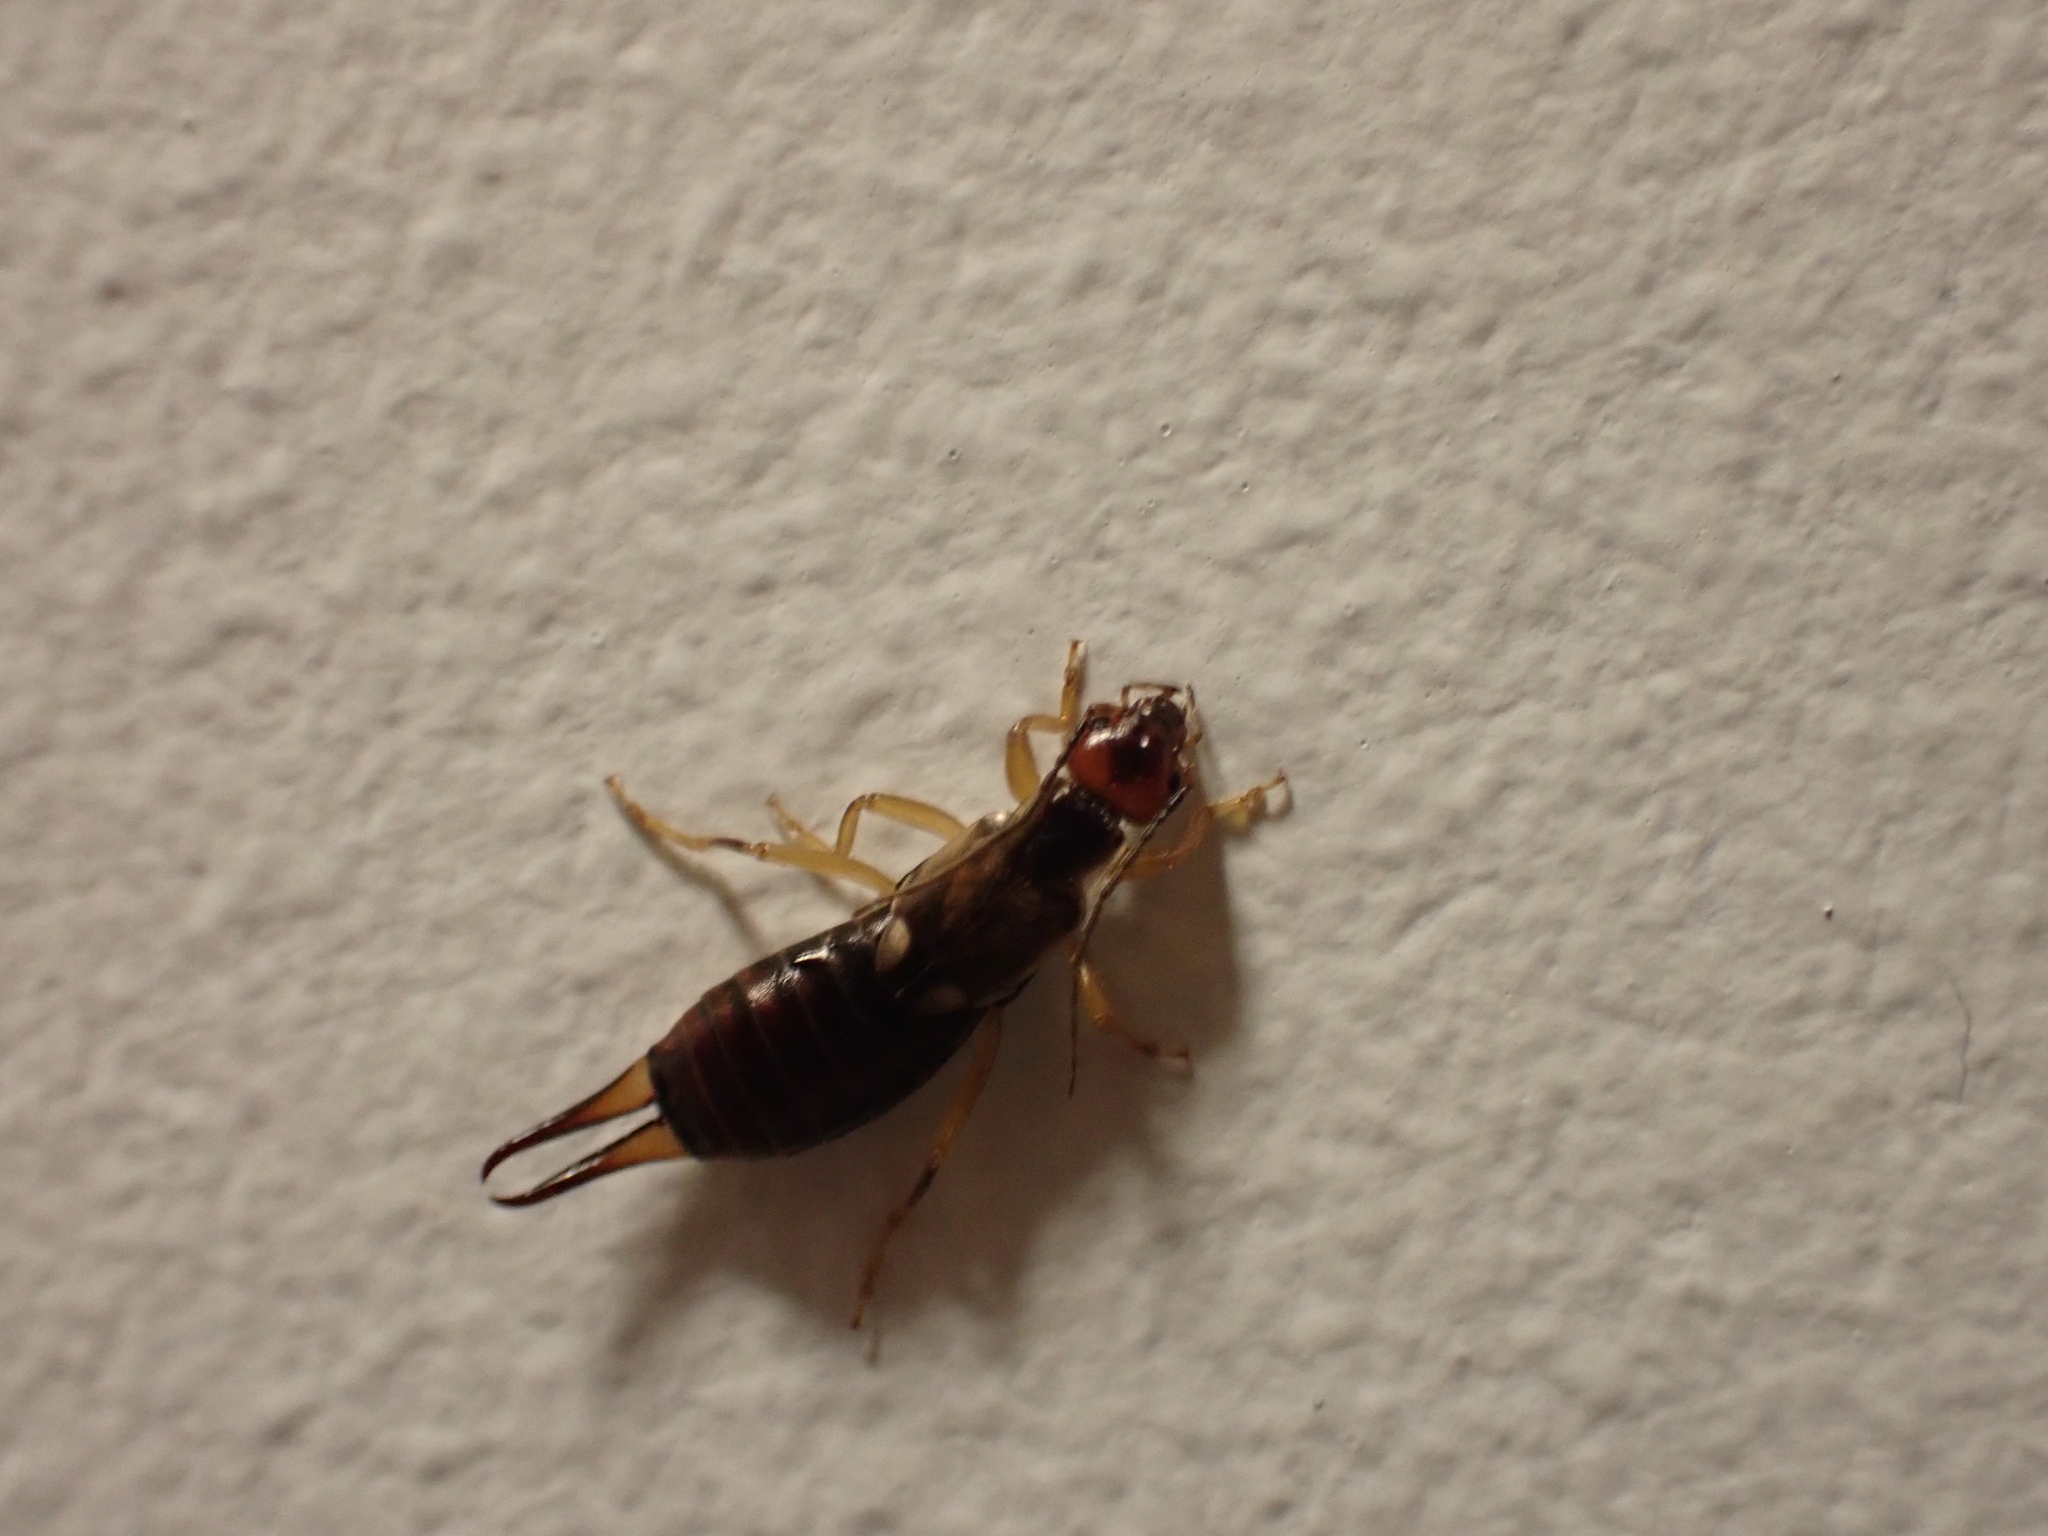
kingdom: Animalia
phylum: Arthropoda
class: Insecta
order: Dermaptera
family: Forficulidae
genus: Forficula
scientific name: Forficula
